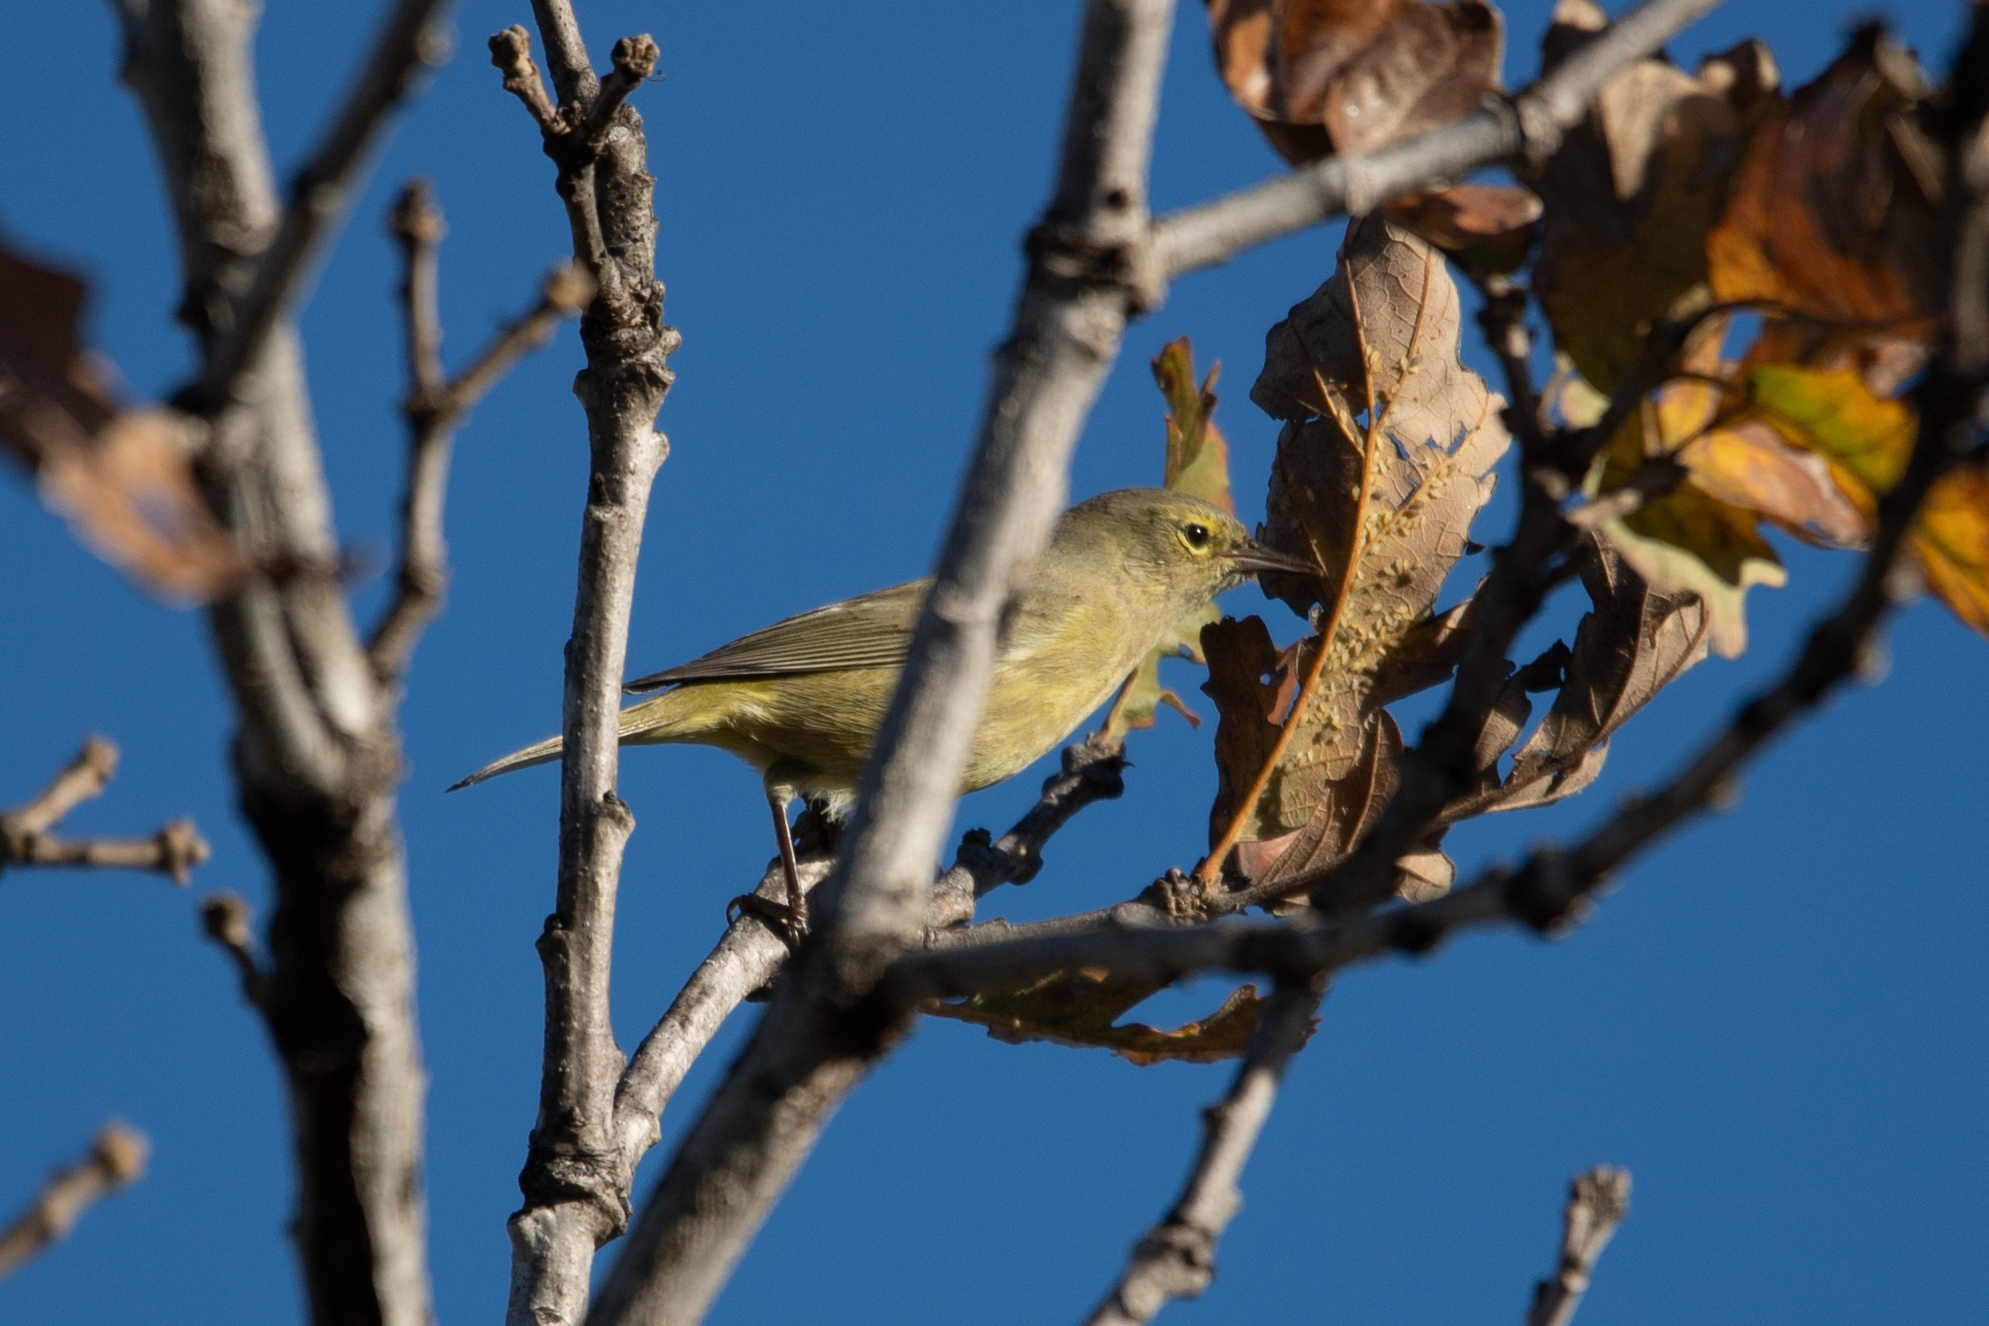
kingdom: Animalia
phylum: Chordata
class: Aves
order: Passeriformes
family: Parulidae
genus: Leiothlypis
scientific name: Leiothlypis celata
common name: Orange-crowned warbler
